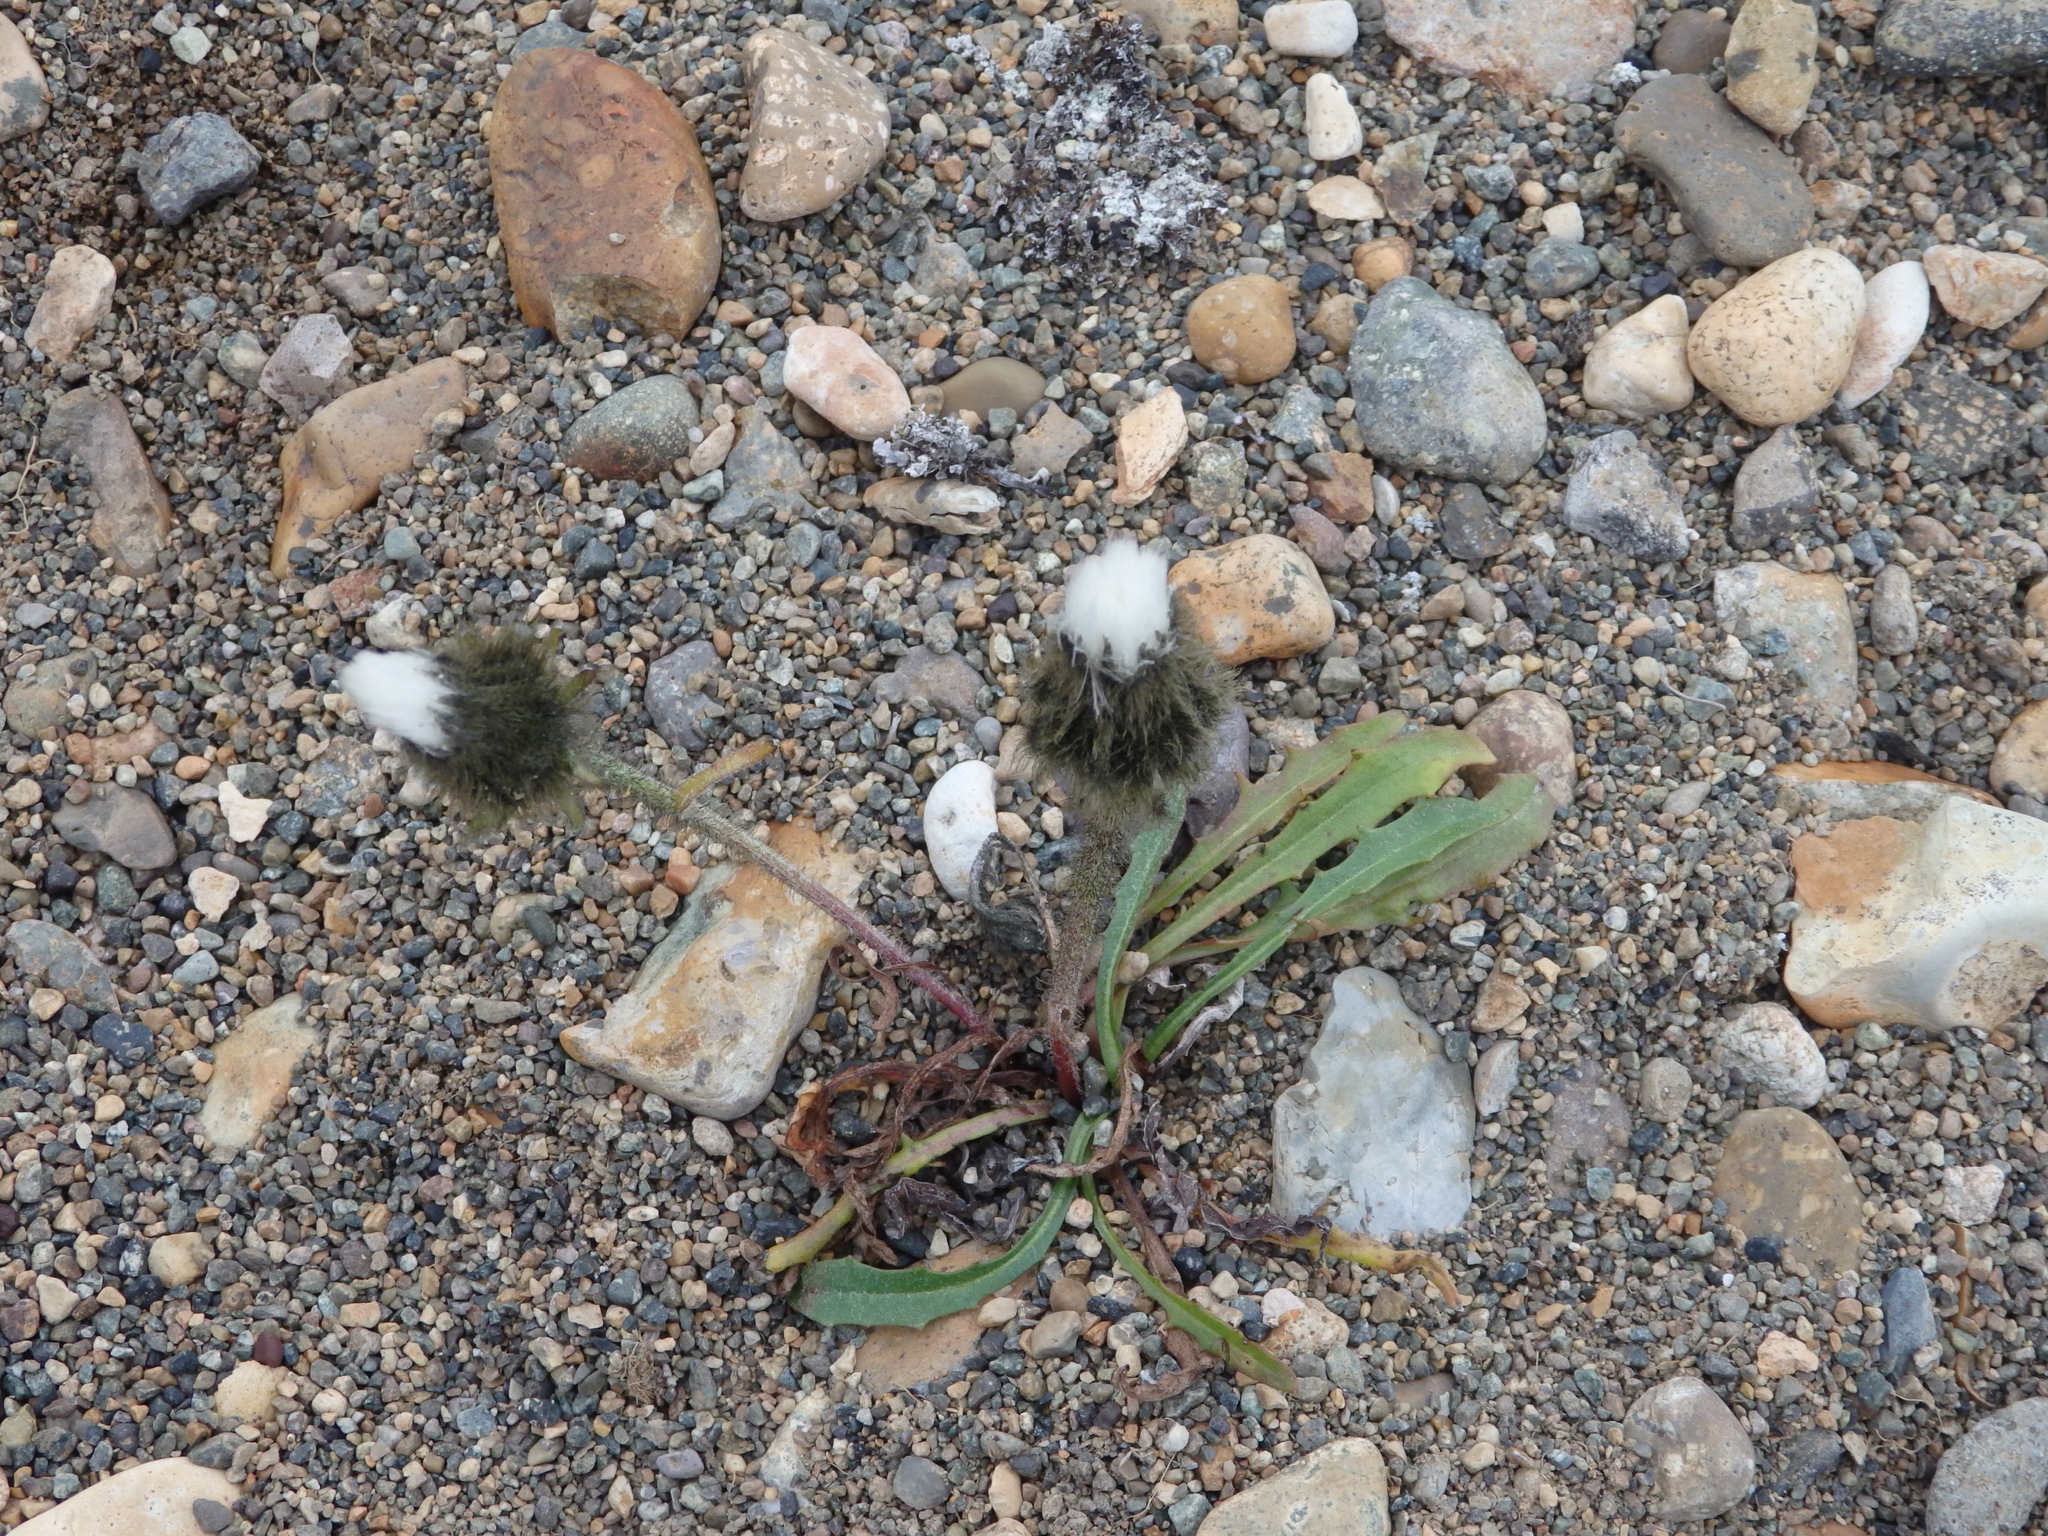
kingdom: Plantae
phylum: Tracheophyta
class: Magnoliopsida
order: Asterales
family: Asteraceae
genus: Crepis
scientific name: Crepis chrysantha
